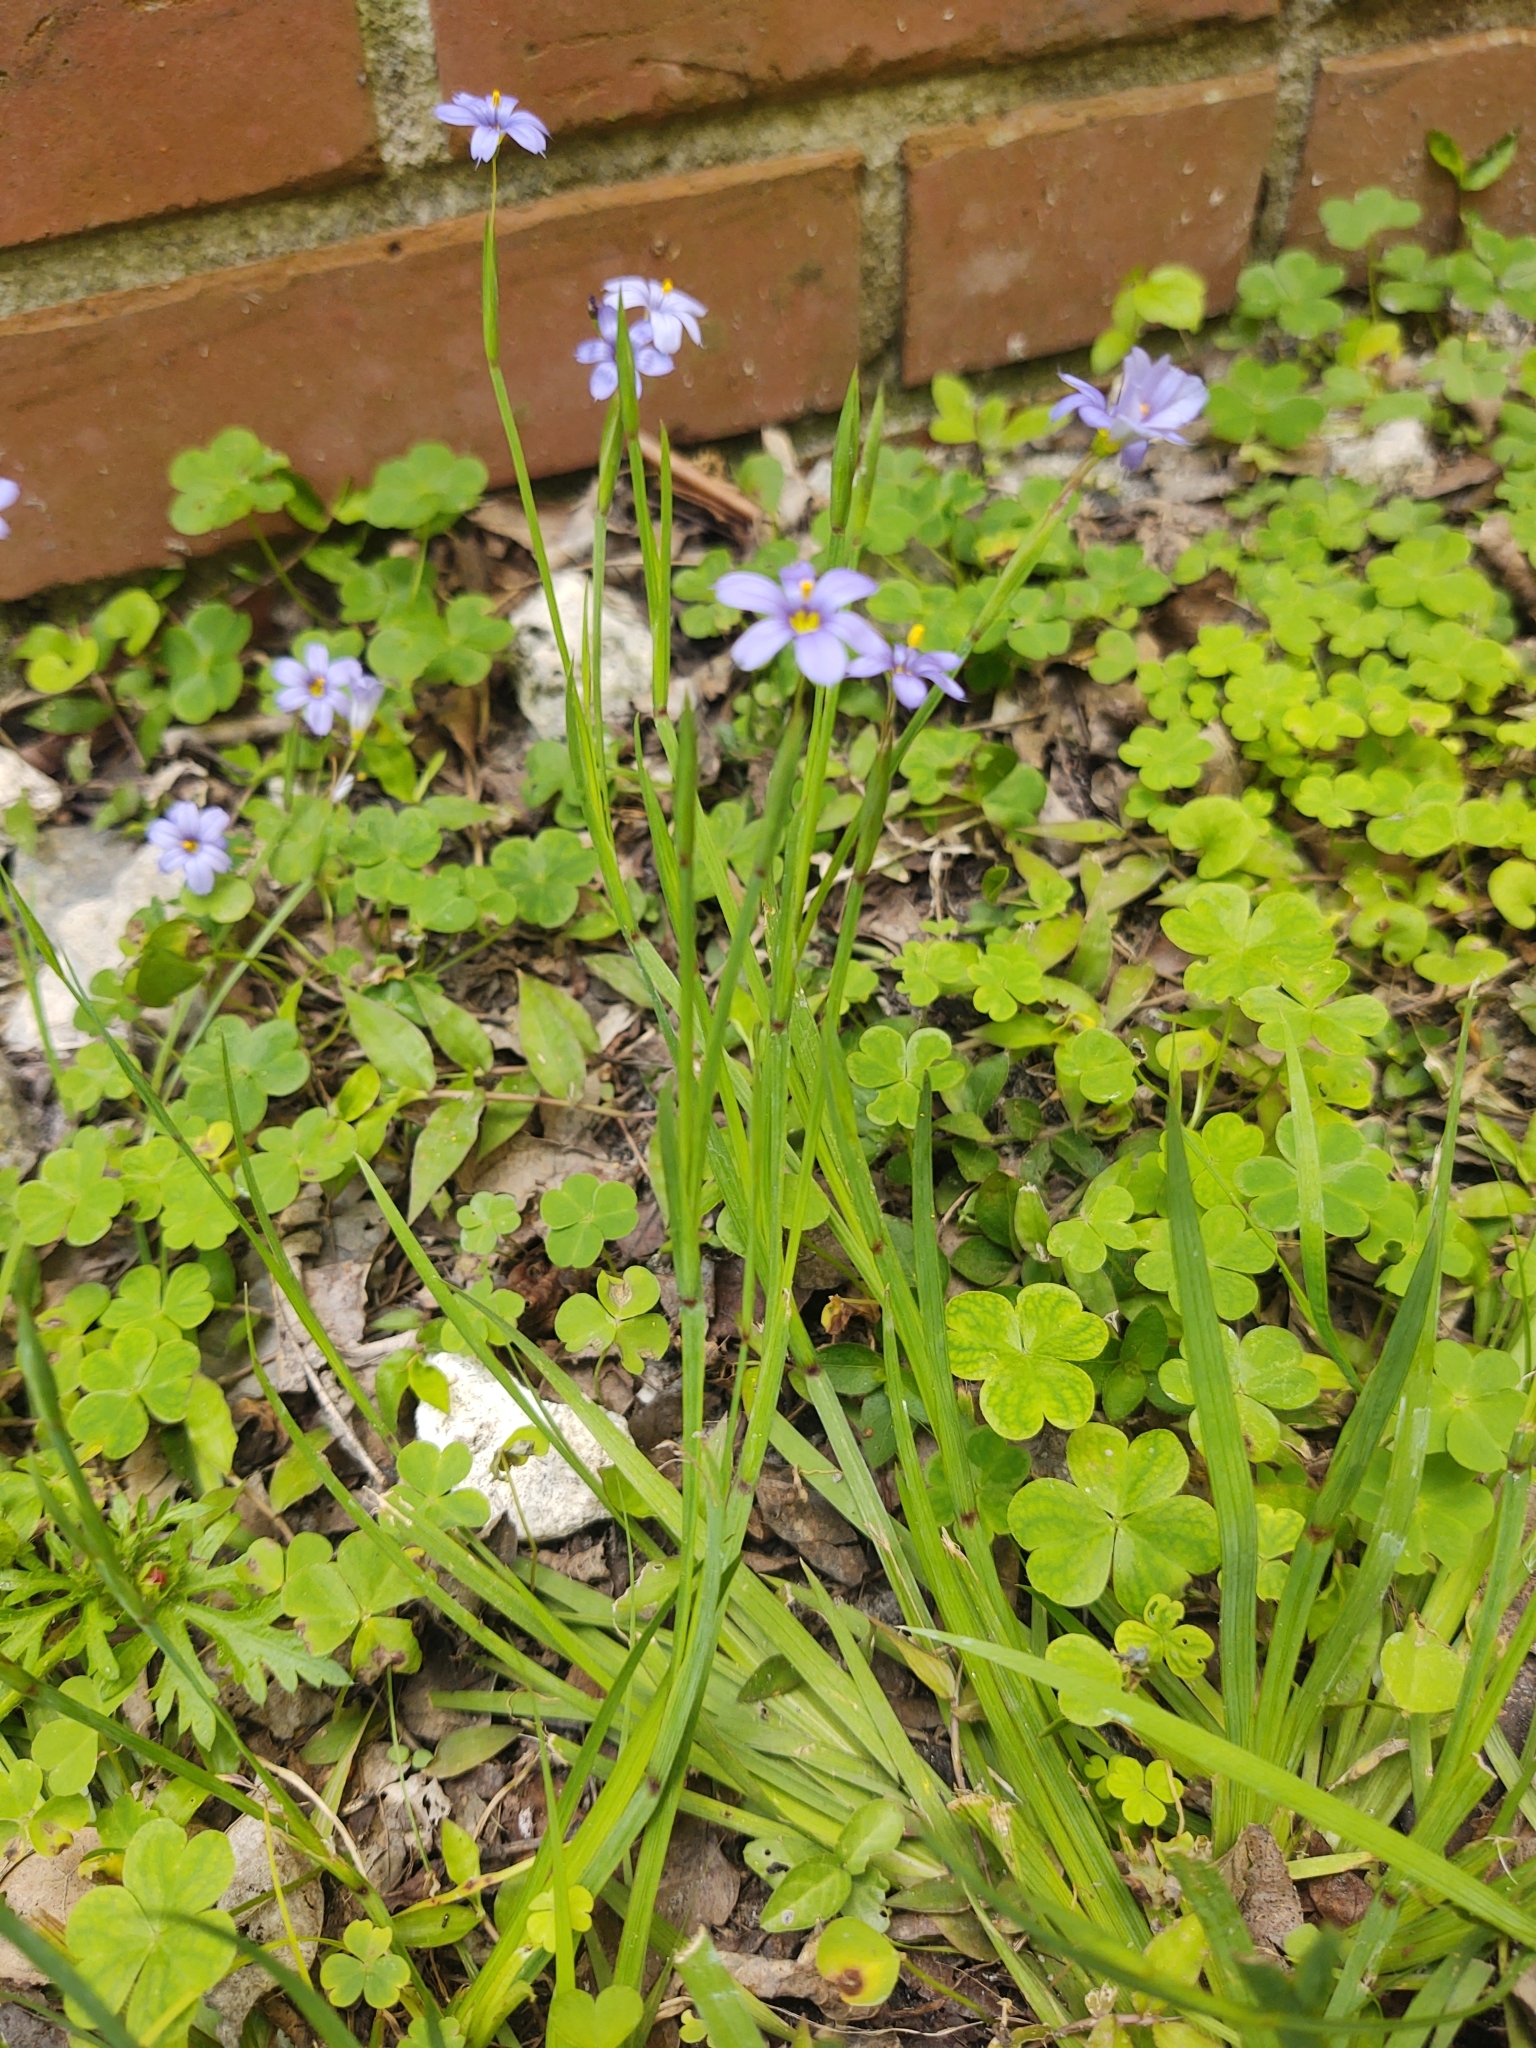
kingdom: Plantae
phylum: Tracheophyta
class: Liliopsida
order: Asparagales
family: Iridaceae
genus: Sisyrinchium
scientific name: Sisyrinchium angustifolium
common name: Narrow-leaf blue-eyed-grass
